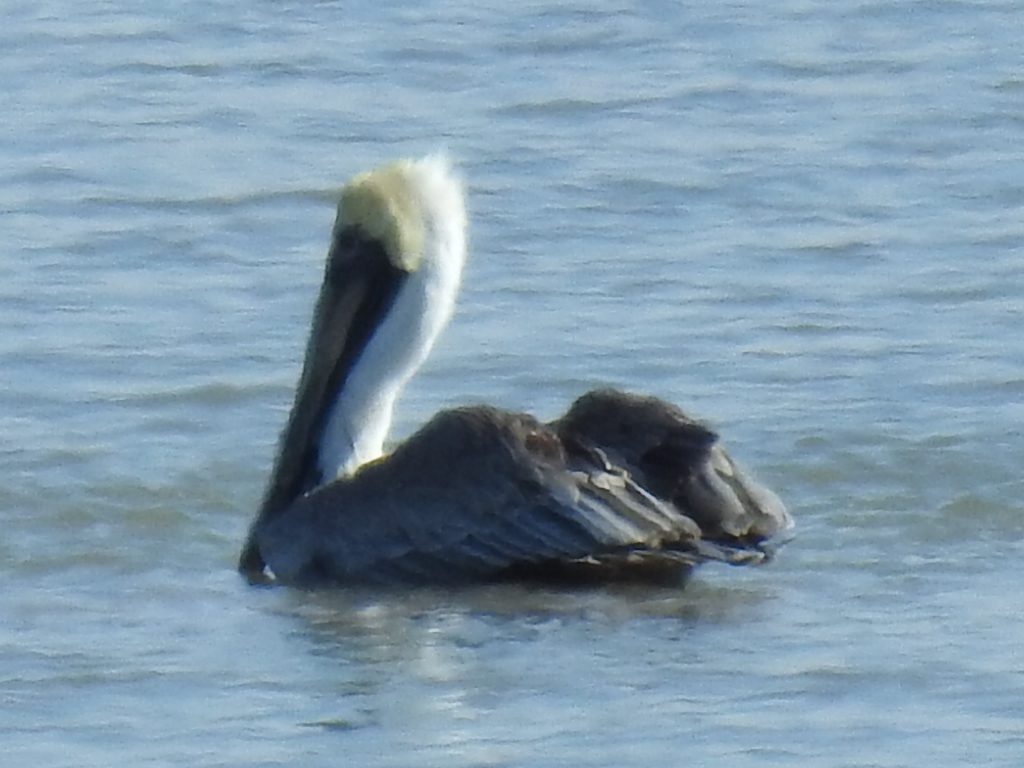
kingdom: Animalia
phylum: Chordata
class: Aves
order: Pelecaniformes
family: Pelecanidae
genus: Pelecanus
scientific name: Pelecanus occidentalis
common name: Brown pelican
